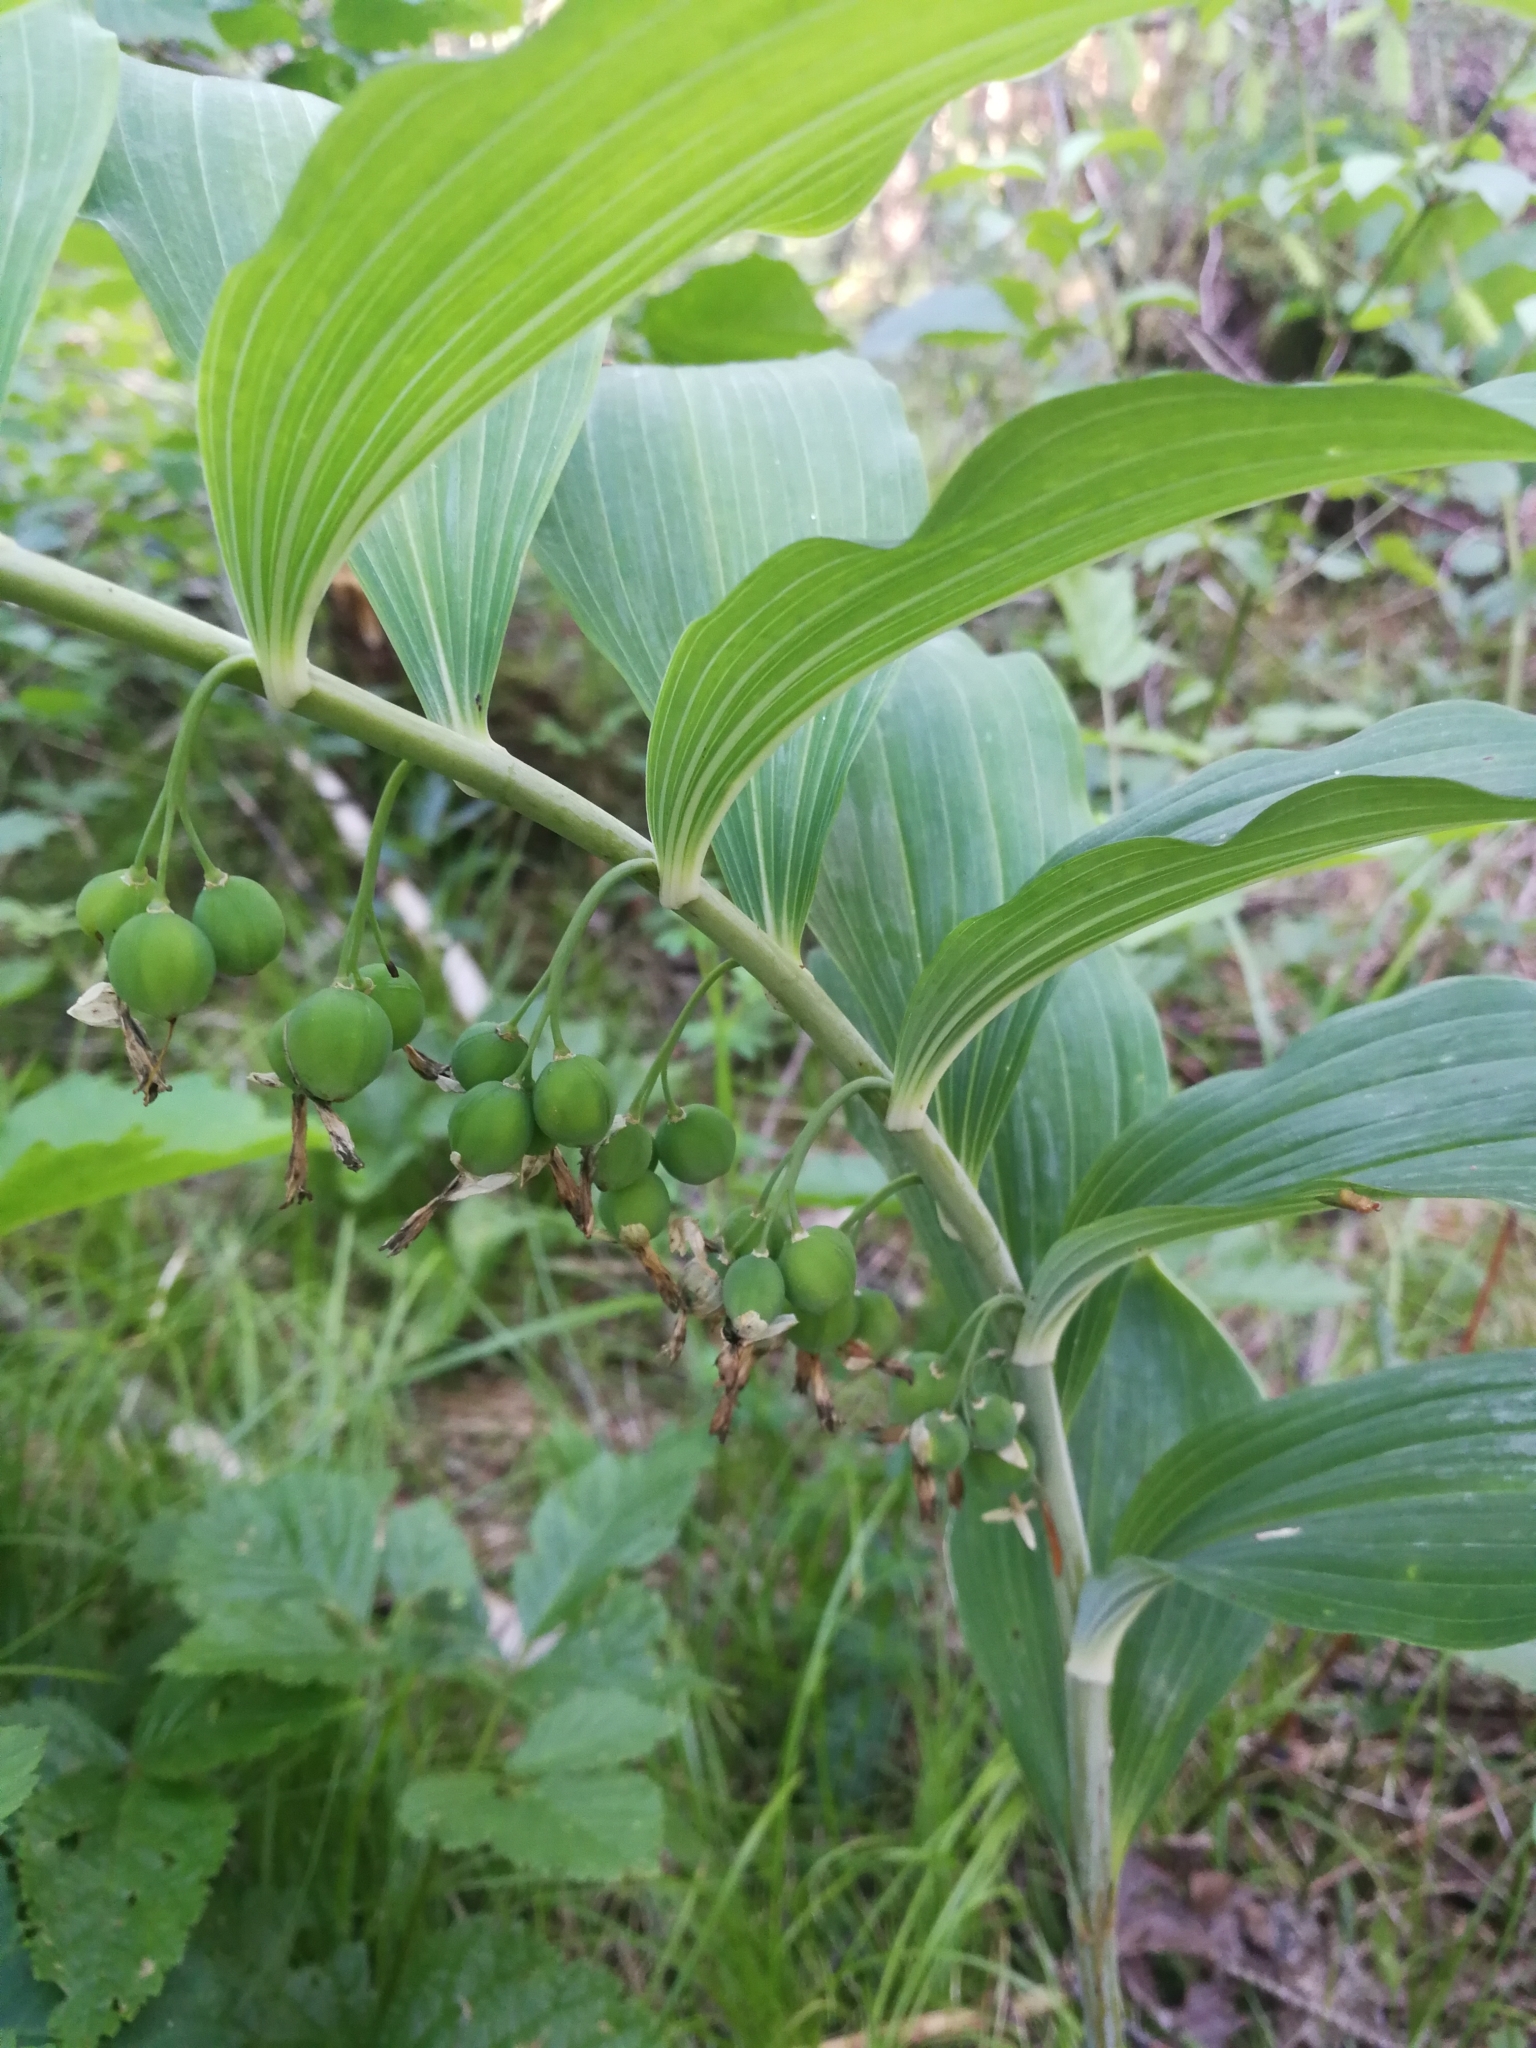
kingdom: Plantae
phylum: Tracheophyta
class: Liliopsida
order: Asparagales
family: Asparagaceae
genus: Polygonatum
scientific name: Polygonatum multiflorum
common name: Solomon's-seal
